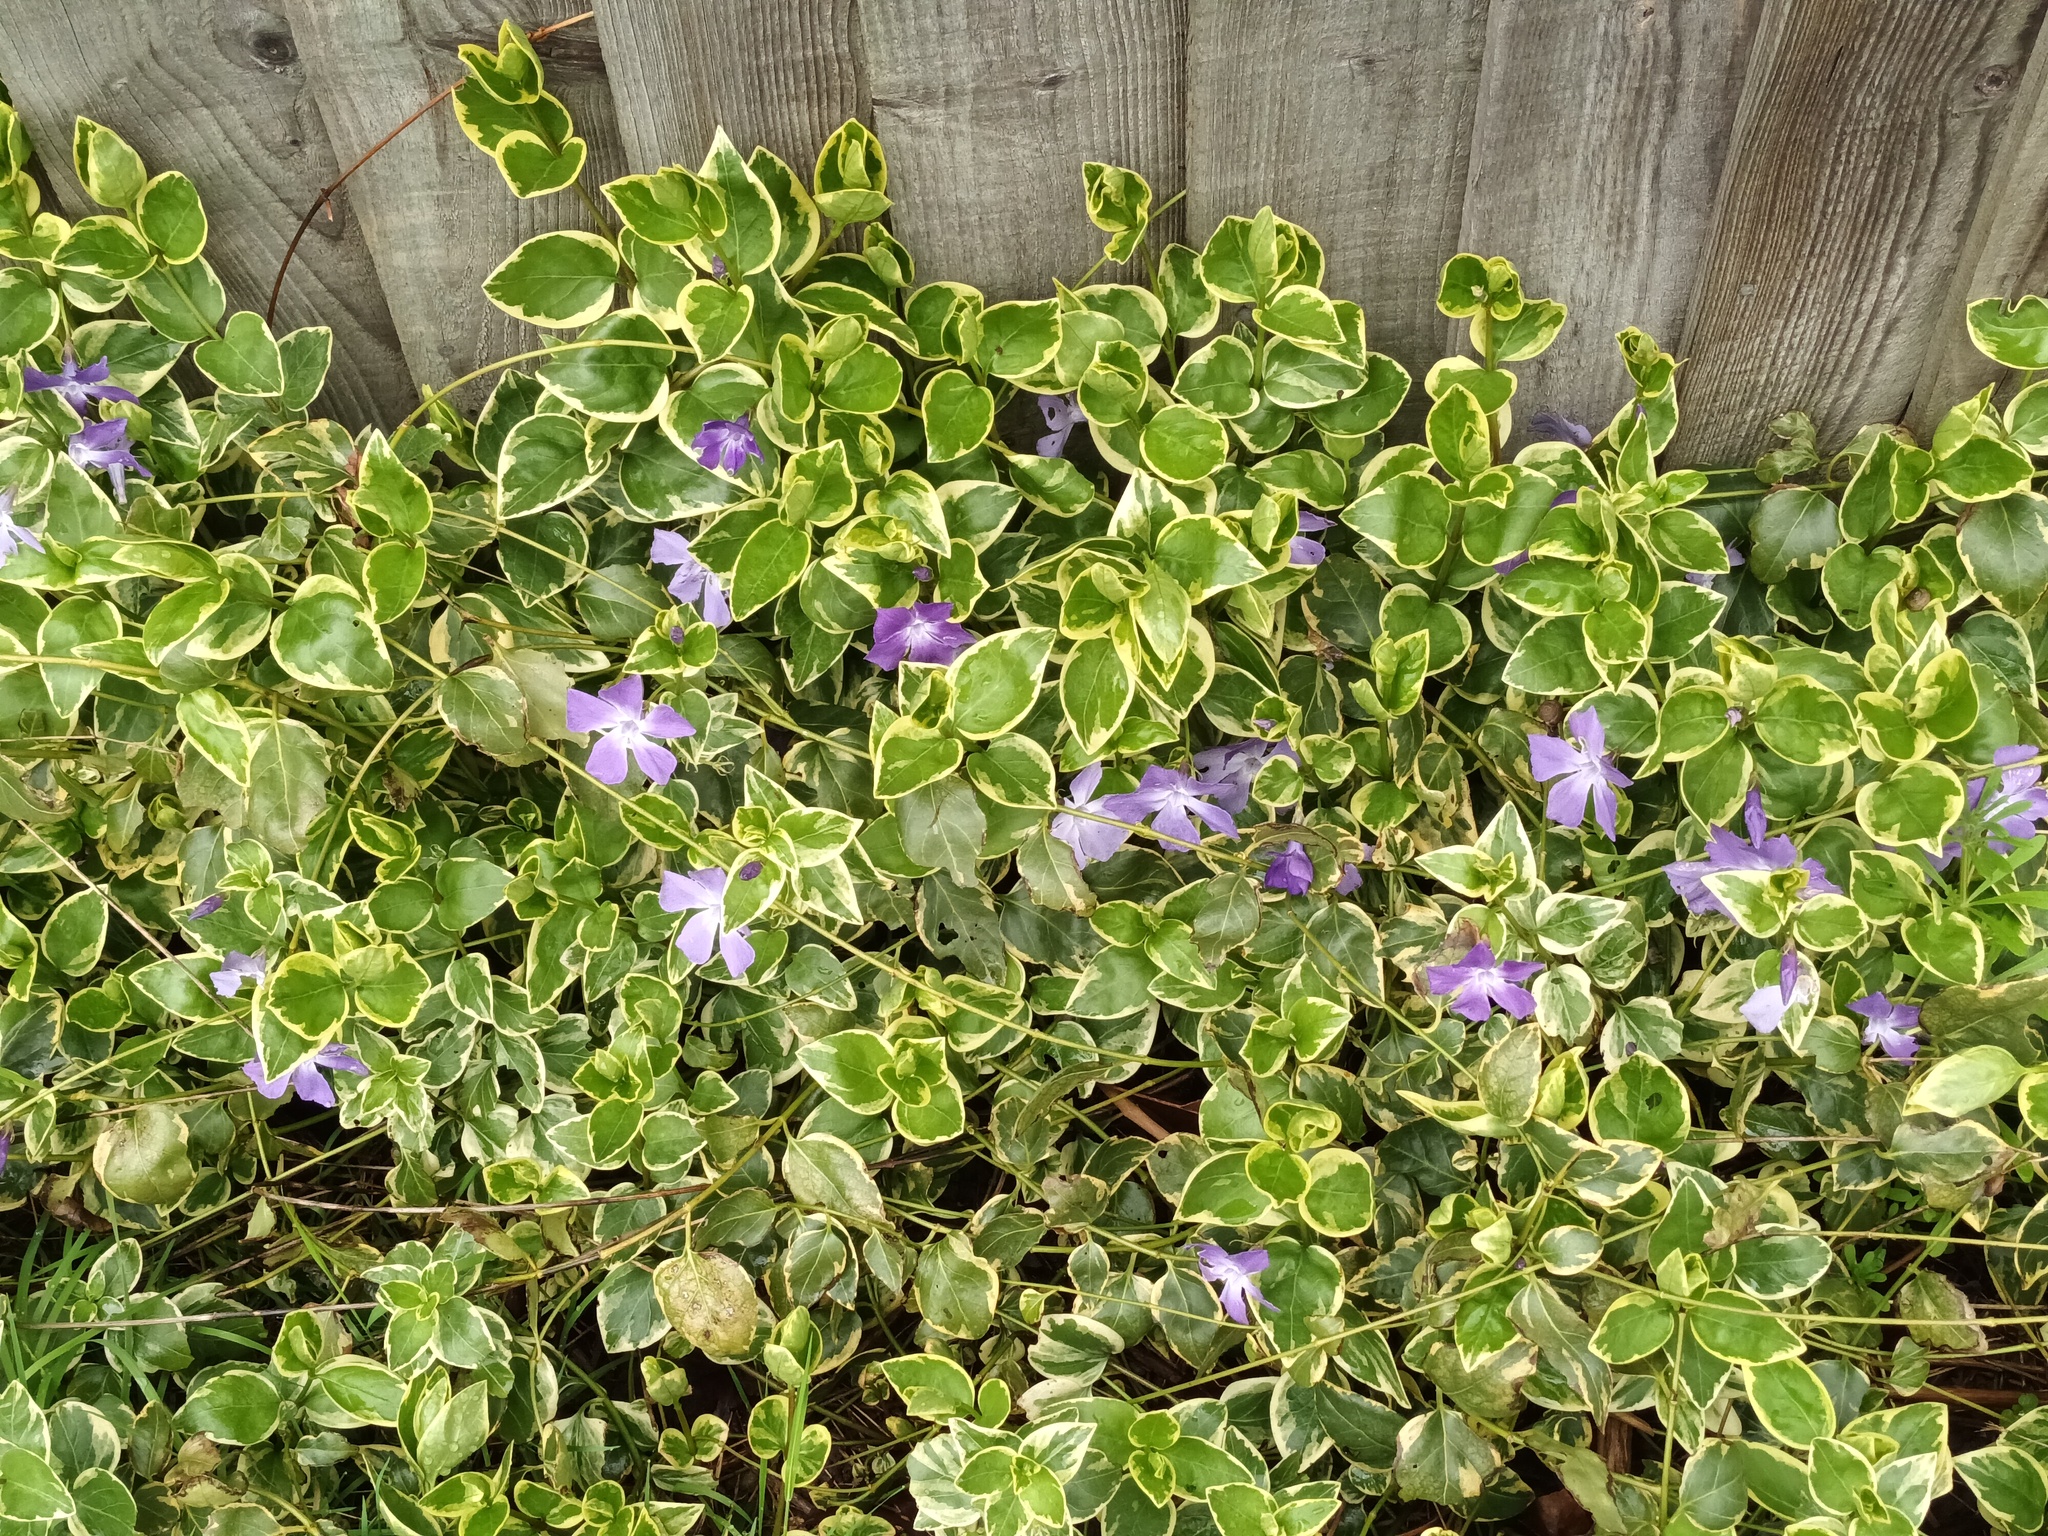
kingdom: Plantae
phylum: Tracheophyta
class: Magnoliopsida
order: Gentianales
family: Apocynaceae
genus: Vinca
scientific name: Vinca major
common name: Greater periwinkle
